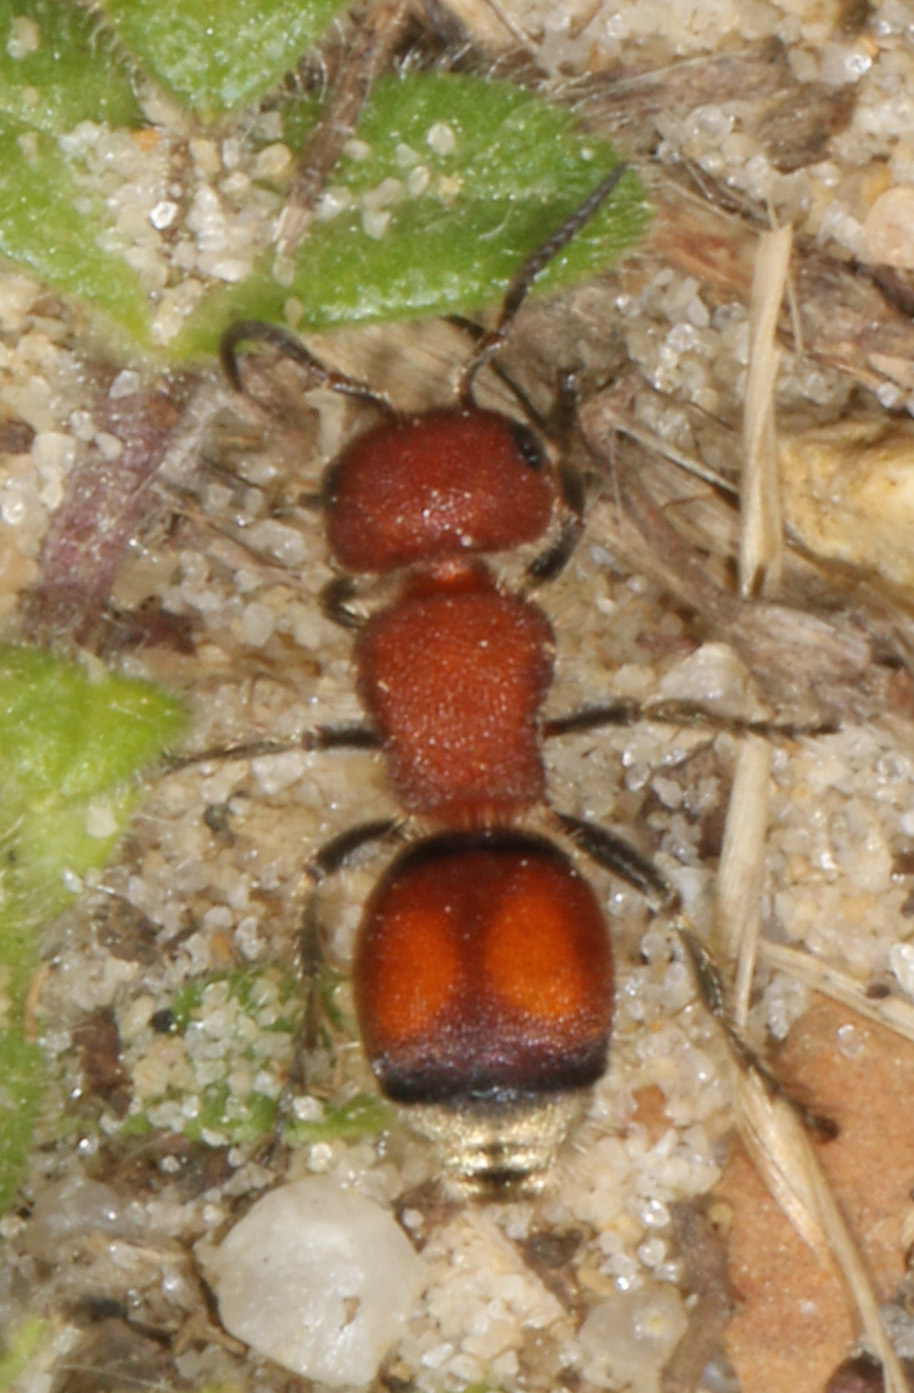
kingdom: Animalia
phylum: Arthropoda
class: Insecta
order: Hymenoptera
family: Mutillidae
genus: Pseudomethoca
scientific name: Pseudomethoca
